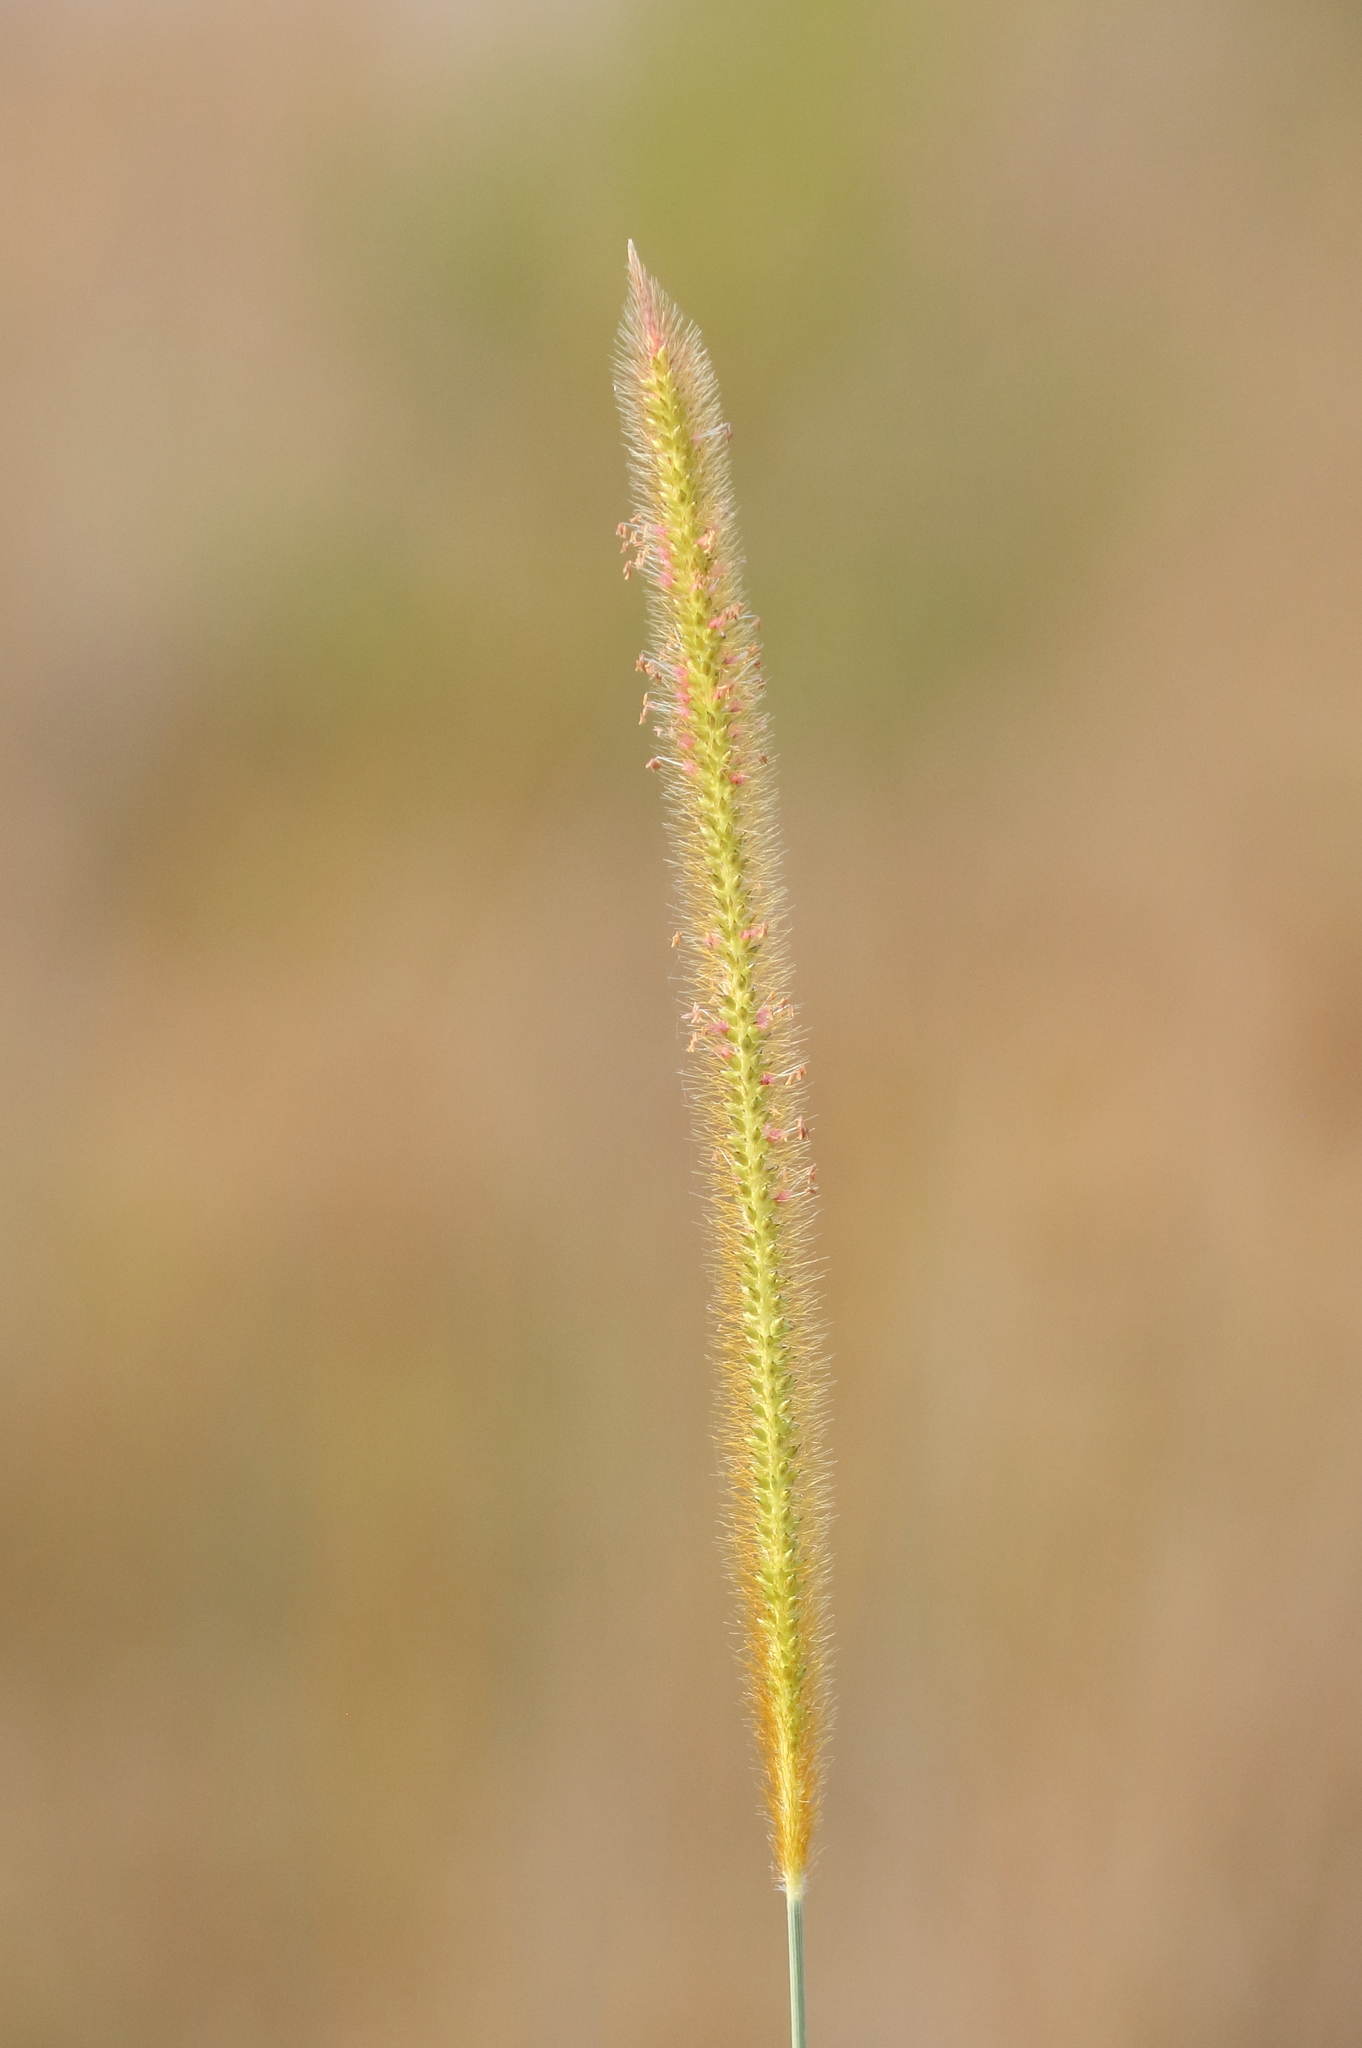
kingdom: Plantae
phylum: Tracheophyta
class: Liliopsida
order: Poales
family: Poaceae
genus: Setaria
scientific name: Setaria sphacelata
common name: African bristlegrass
